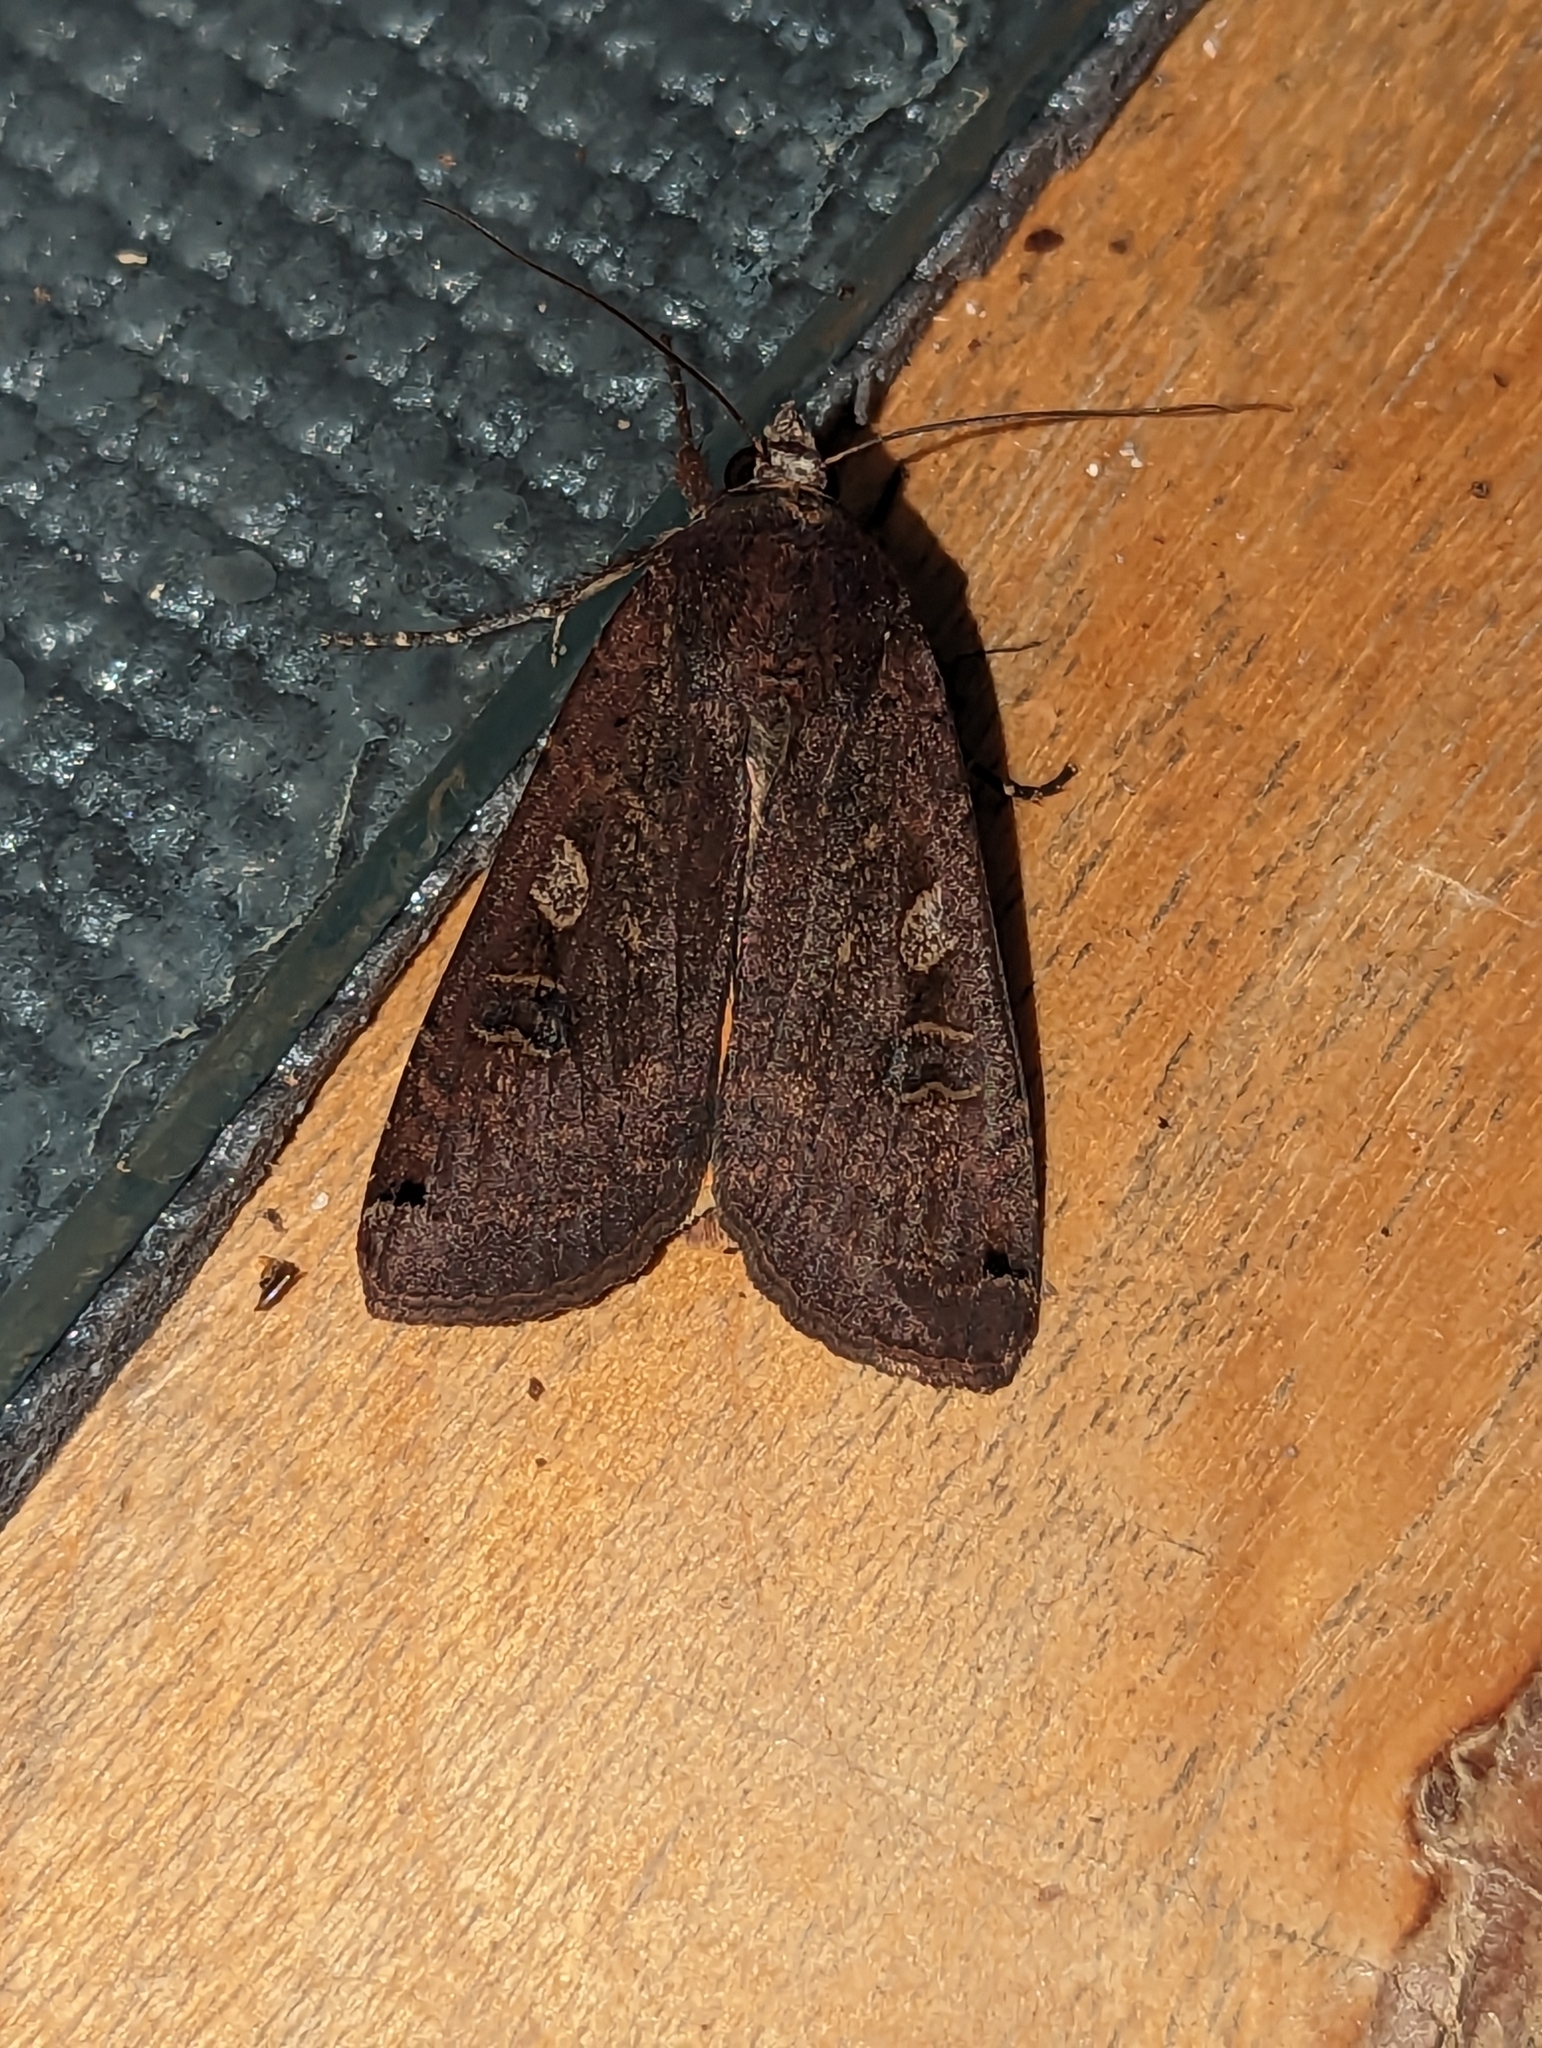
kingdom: Animalia
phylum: Arthropoda
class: Insecta
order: Lepidoptera
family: Noctuidae
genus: Noctua
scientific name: Noctua pronuba
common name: Large yellow underwing
